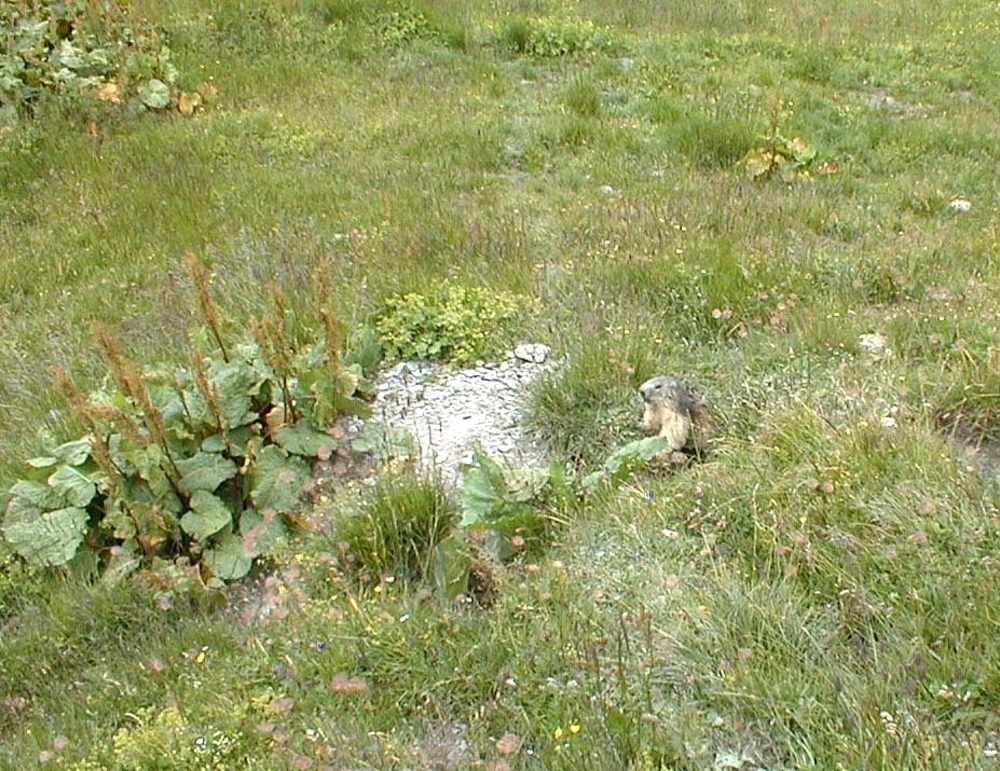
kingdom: Animalia
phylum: Chordata
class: Mammalia
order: Rodentia
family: Sciuridae
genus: Marmota
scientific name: Marmota marmota
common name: Alpine marmot
